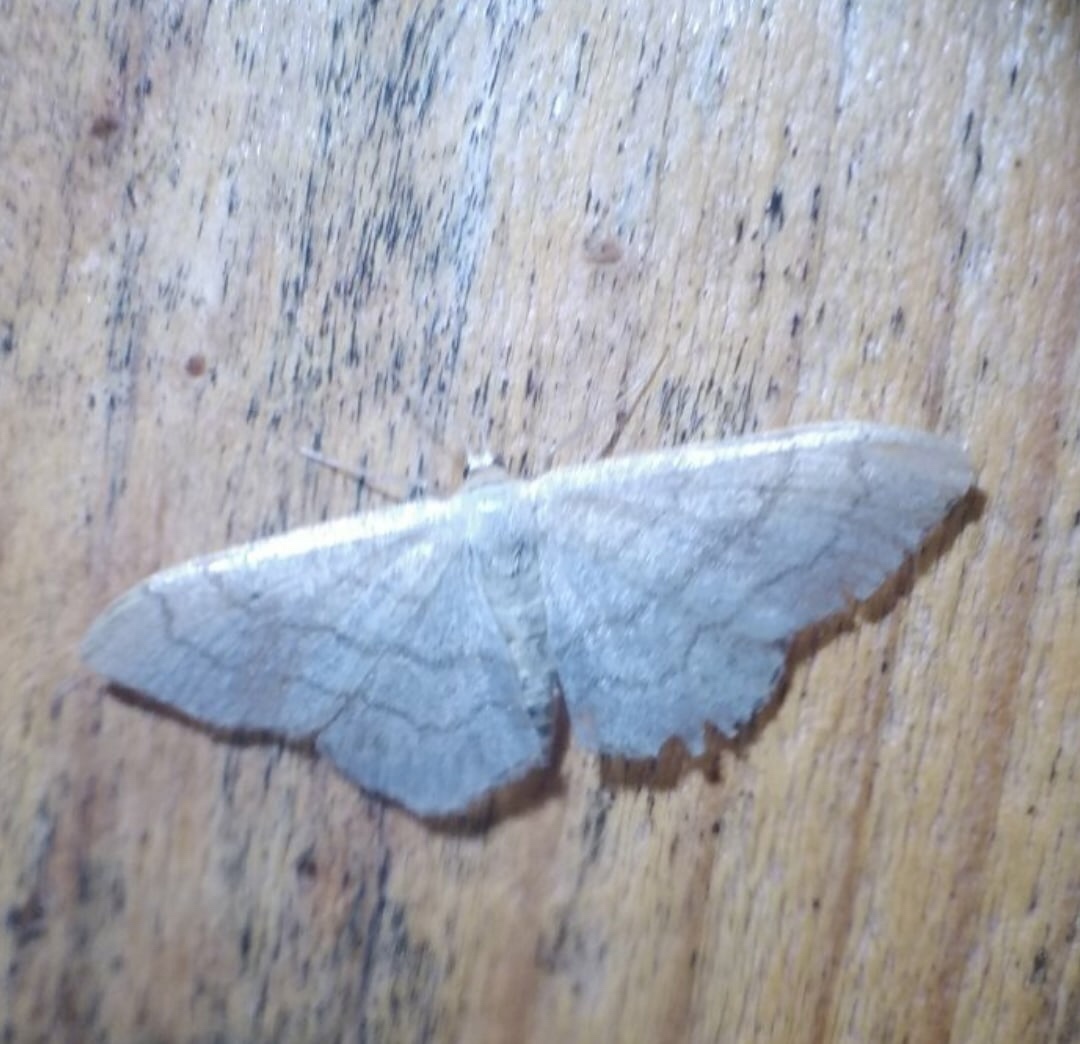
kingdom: Animalia
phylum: Arthropoda
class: Insecta
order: Lepidoptera
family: Geometridae
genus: Idaea
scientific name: Idaea aversata
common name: Riband wave
